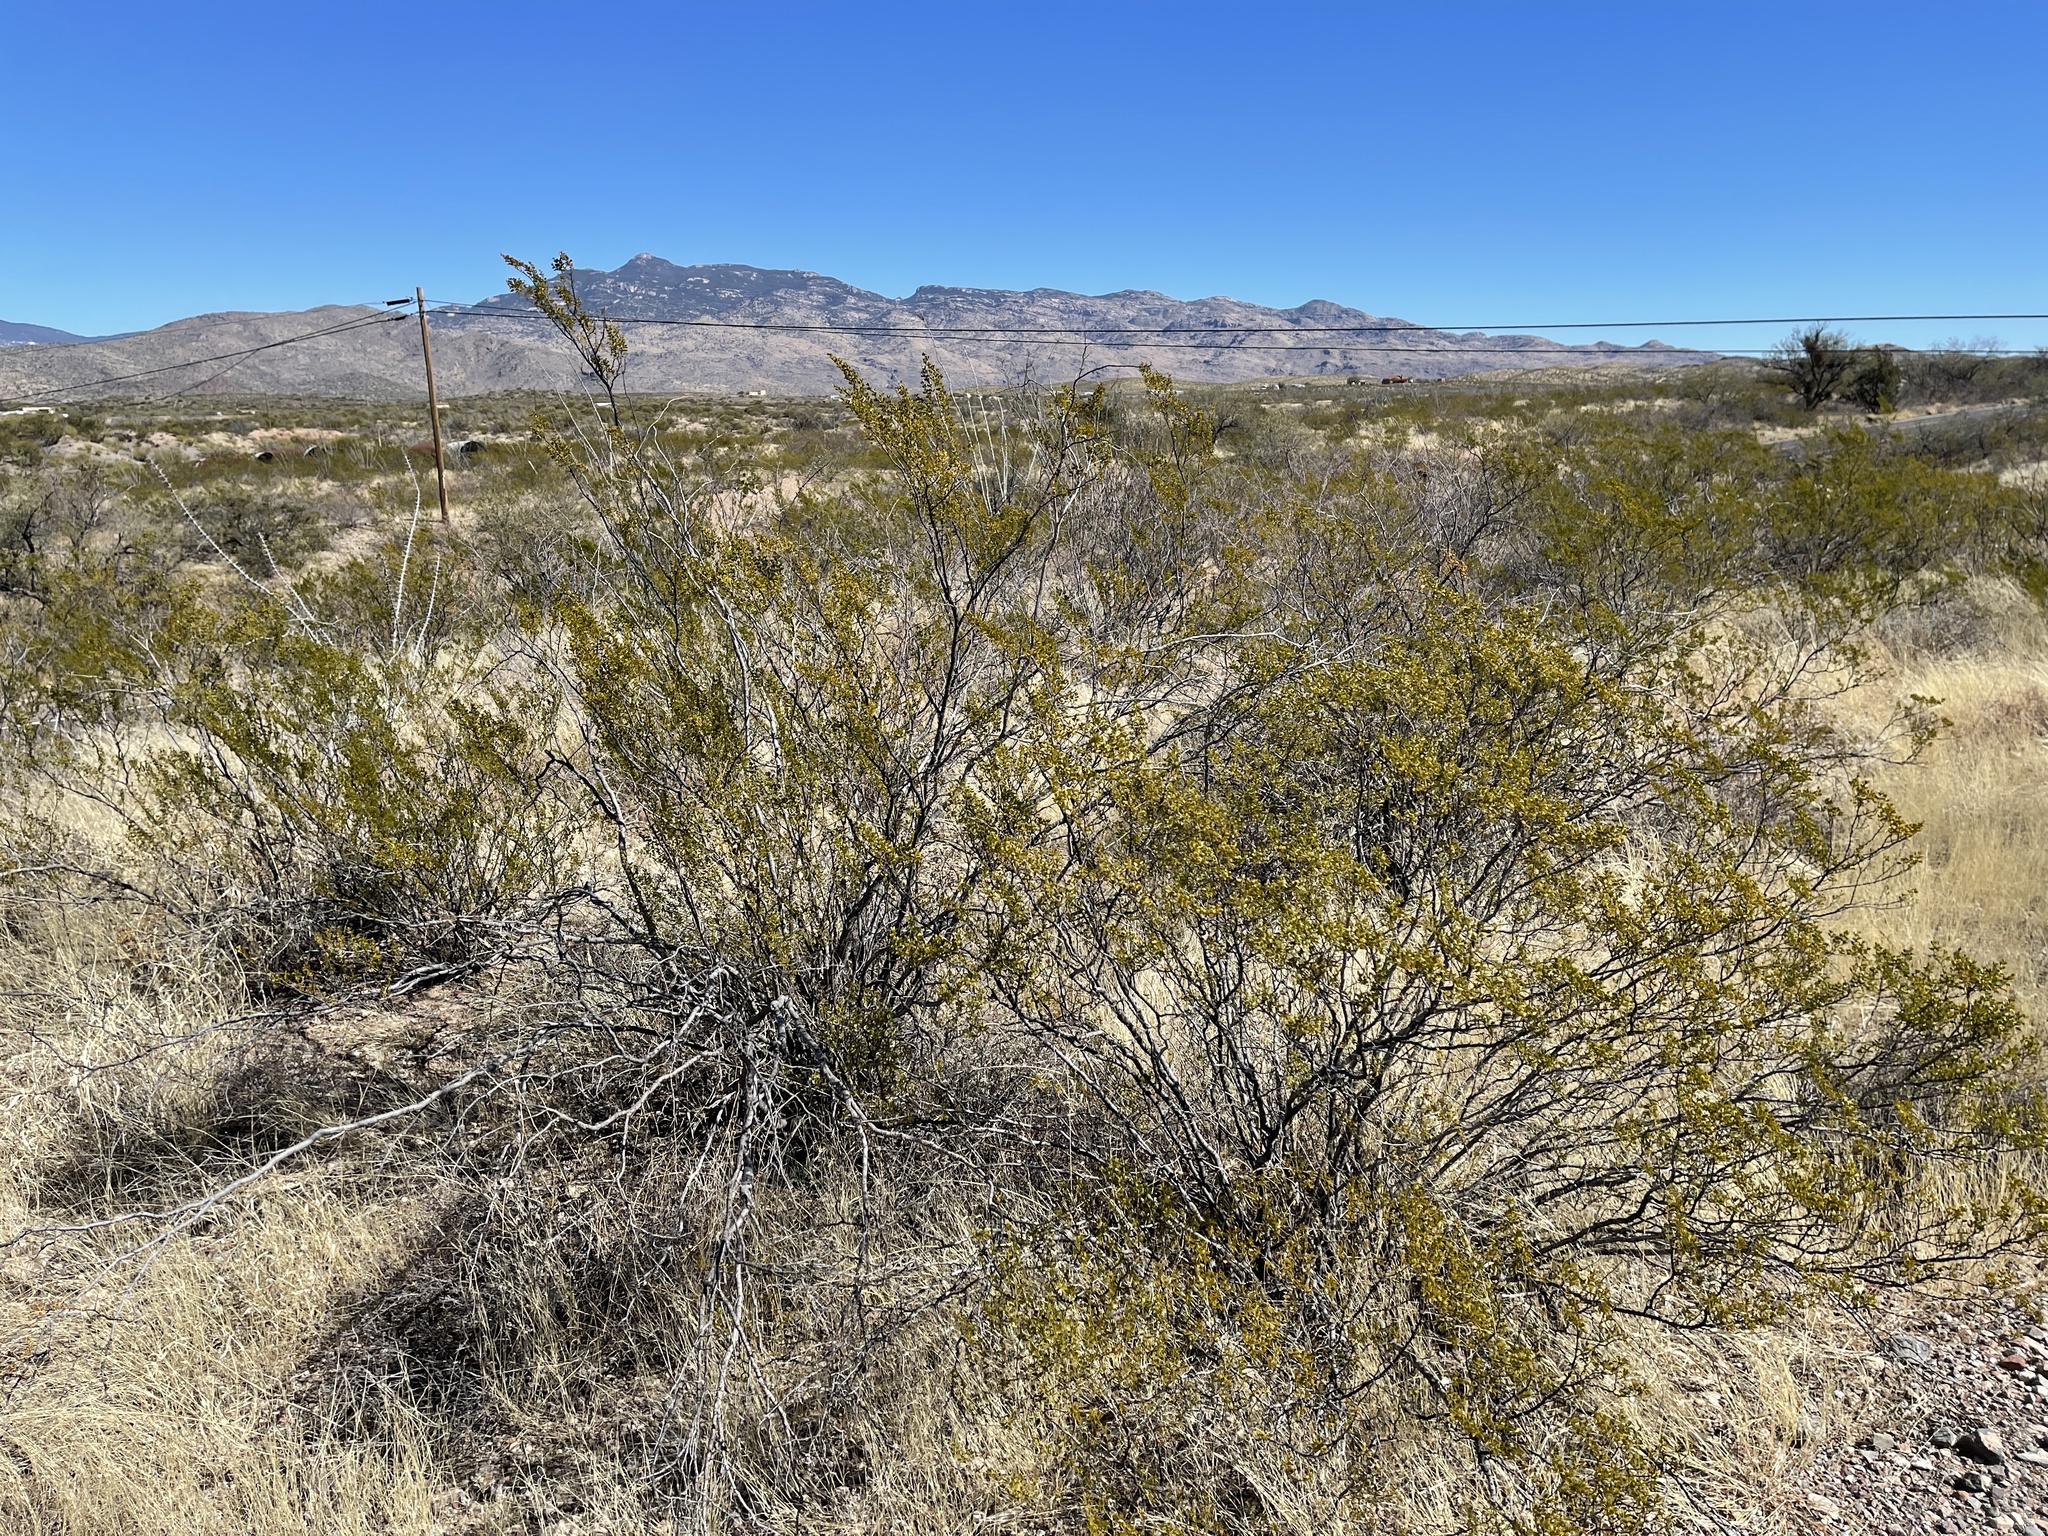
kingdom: Plantae
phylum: Tracheophyta
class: Magnoliopsida
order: Zygophyllales
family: Zygophyllaceae
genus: Larrea
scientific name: Larrea tridentata
